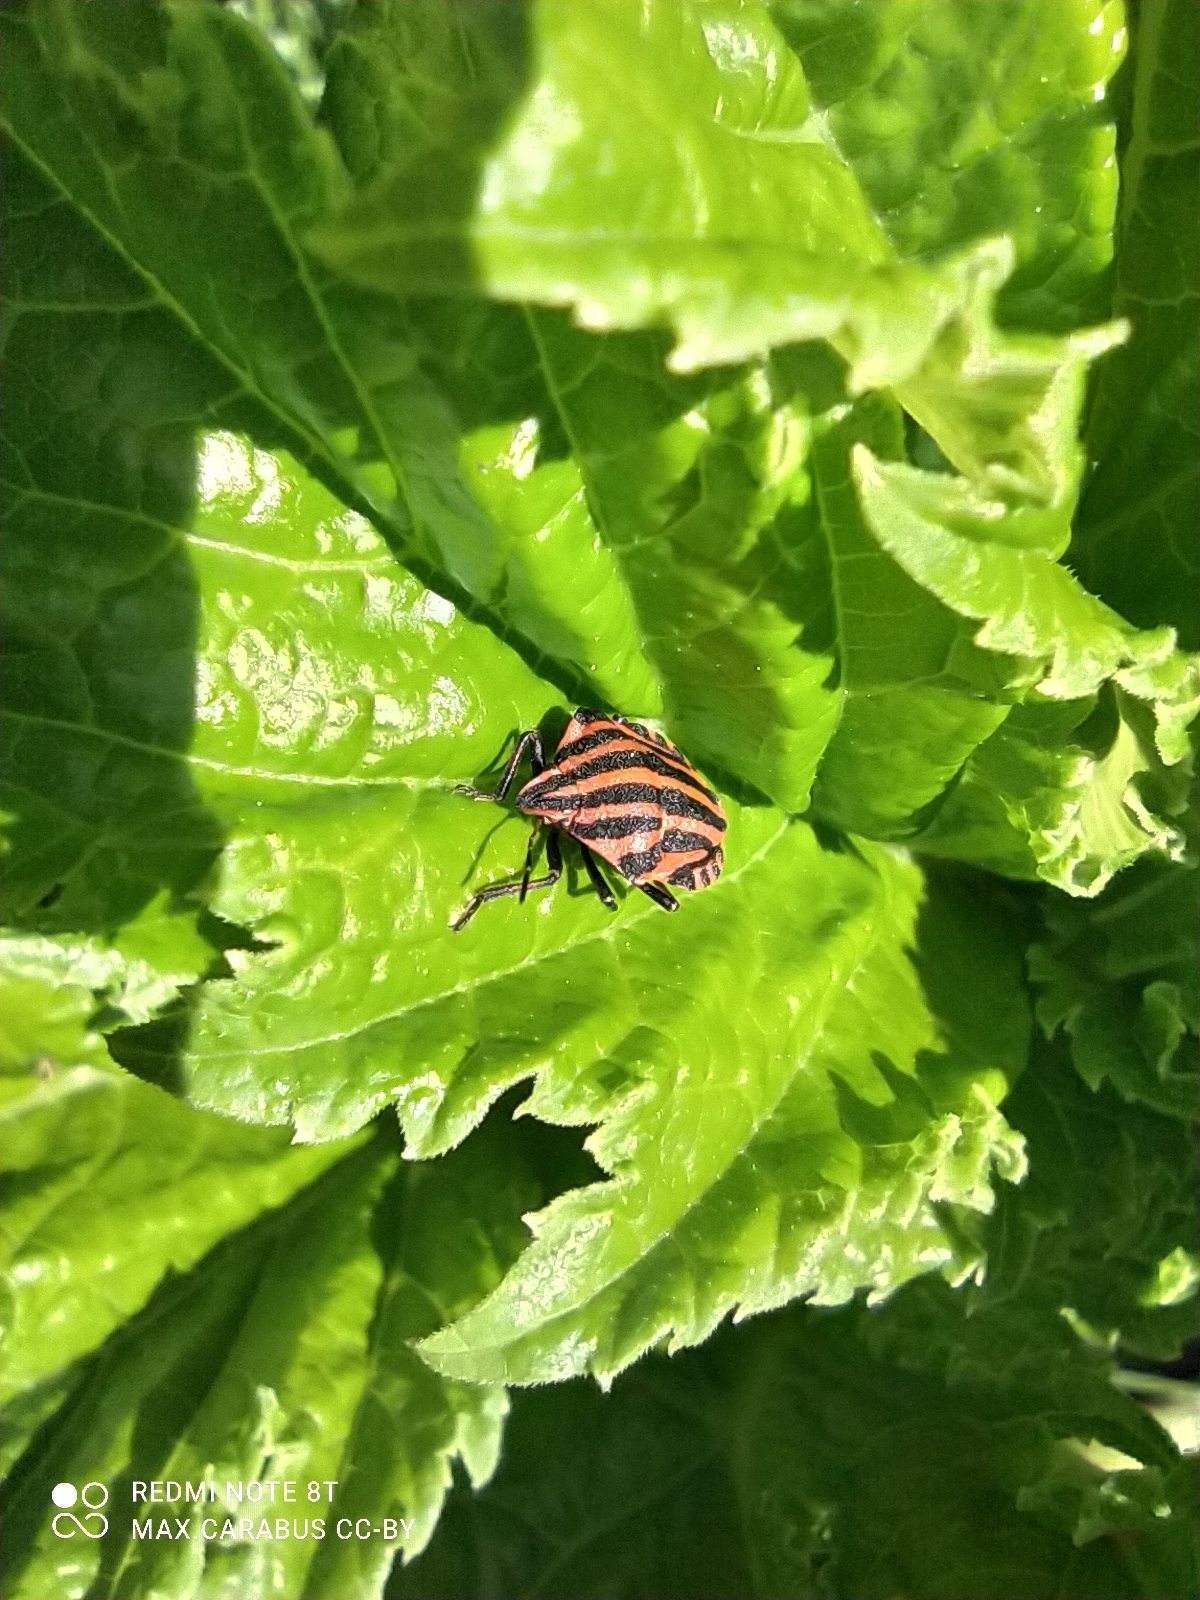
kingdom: Animalia
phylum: Arthropoda
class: Insecta
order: Hemiptera
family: Pentatomidae
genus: Graphosoma
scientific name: Graphosoma italicum
